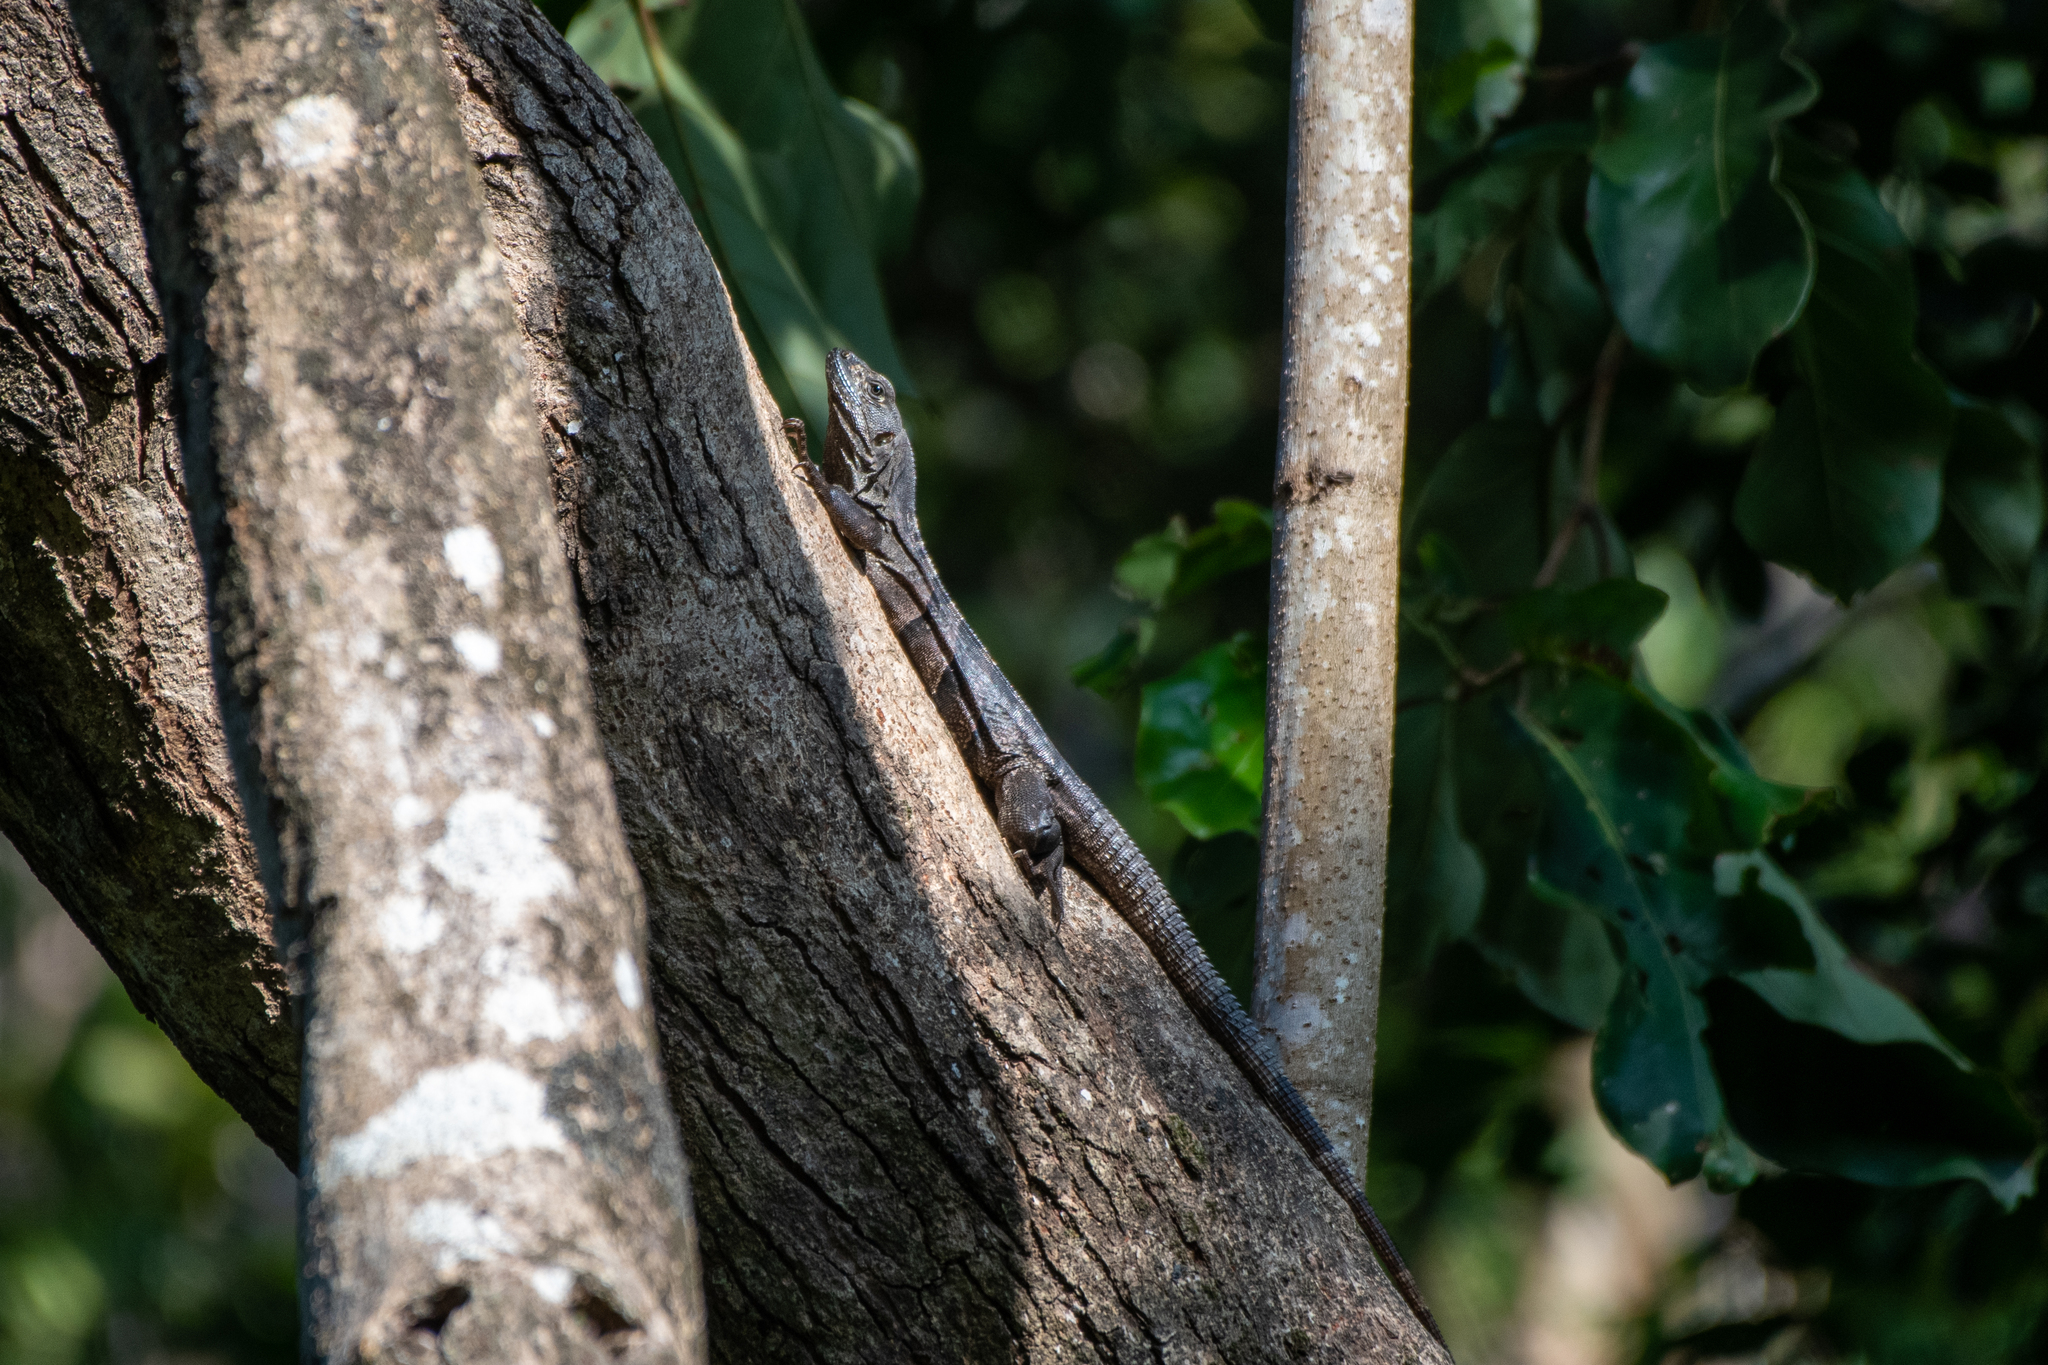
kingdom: Animalia
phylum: Chordata
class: Squamata
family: Iguanidae
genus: Ctenosaura
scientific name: Ctenosaura similis
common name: Black spiny-tailed iguana
